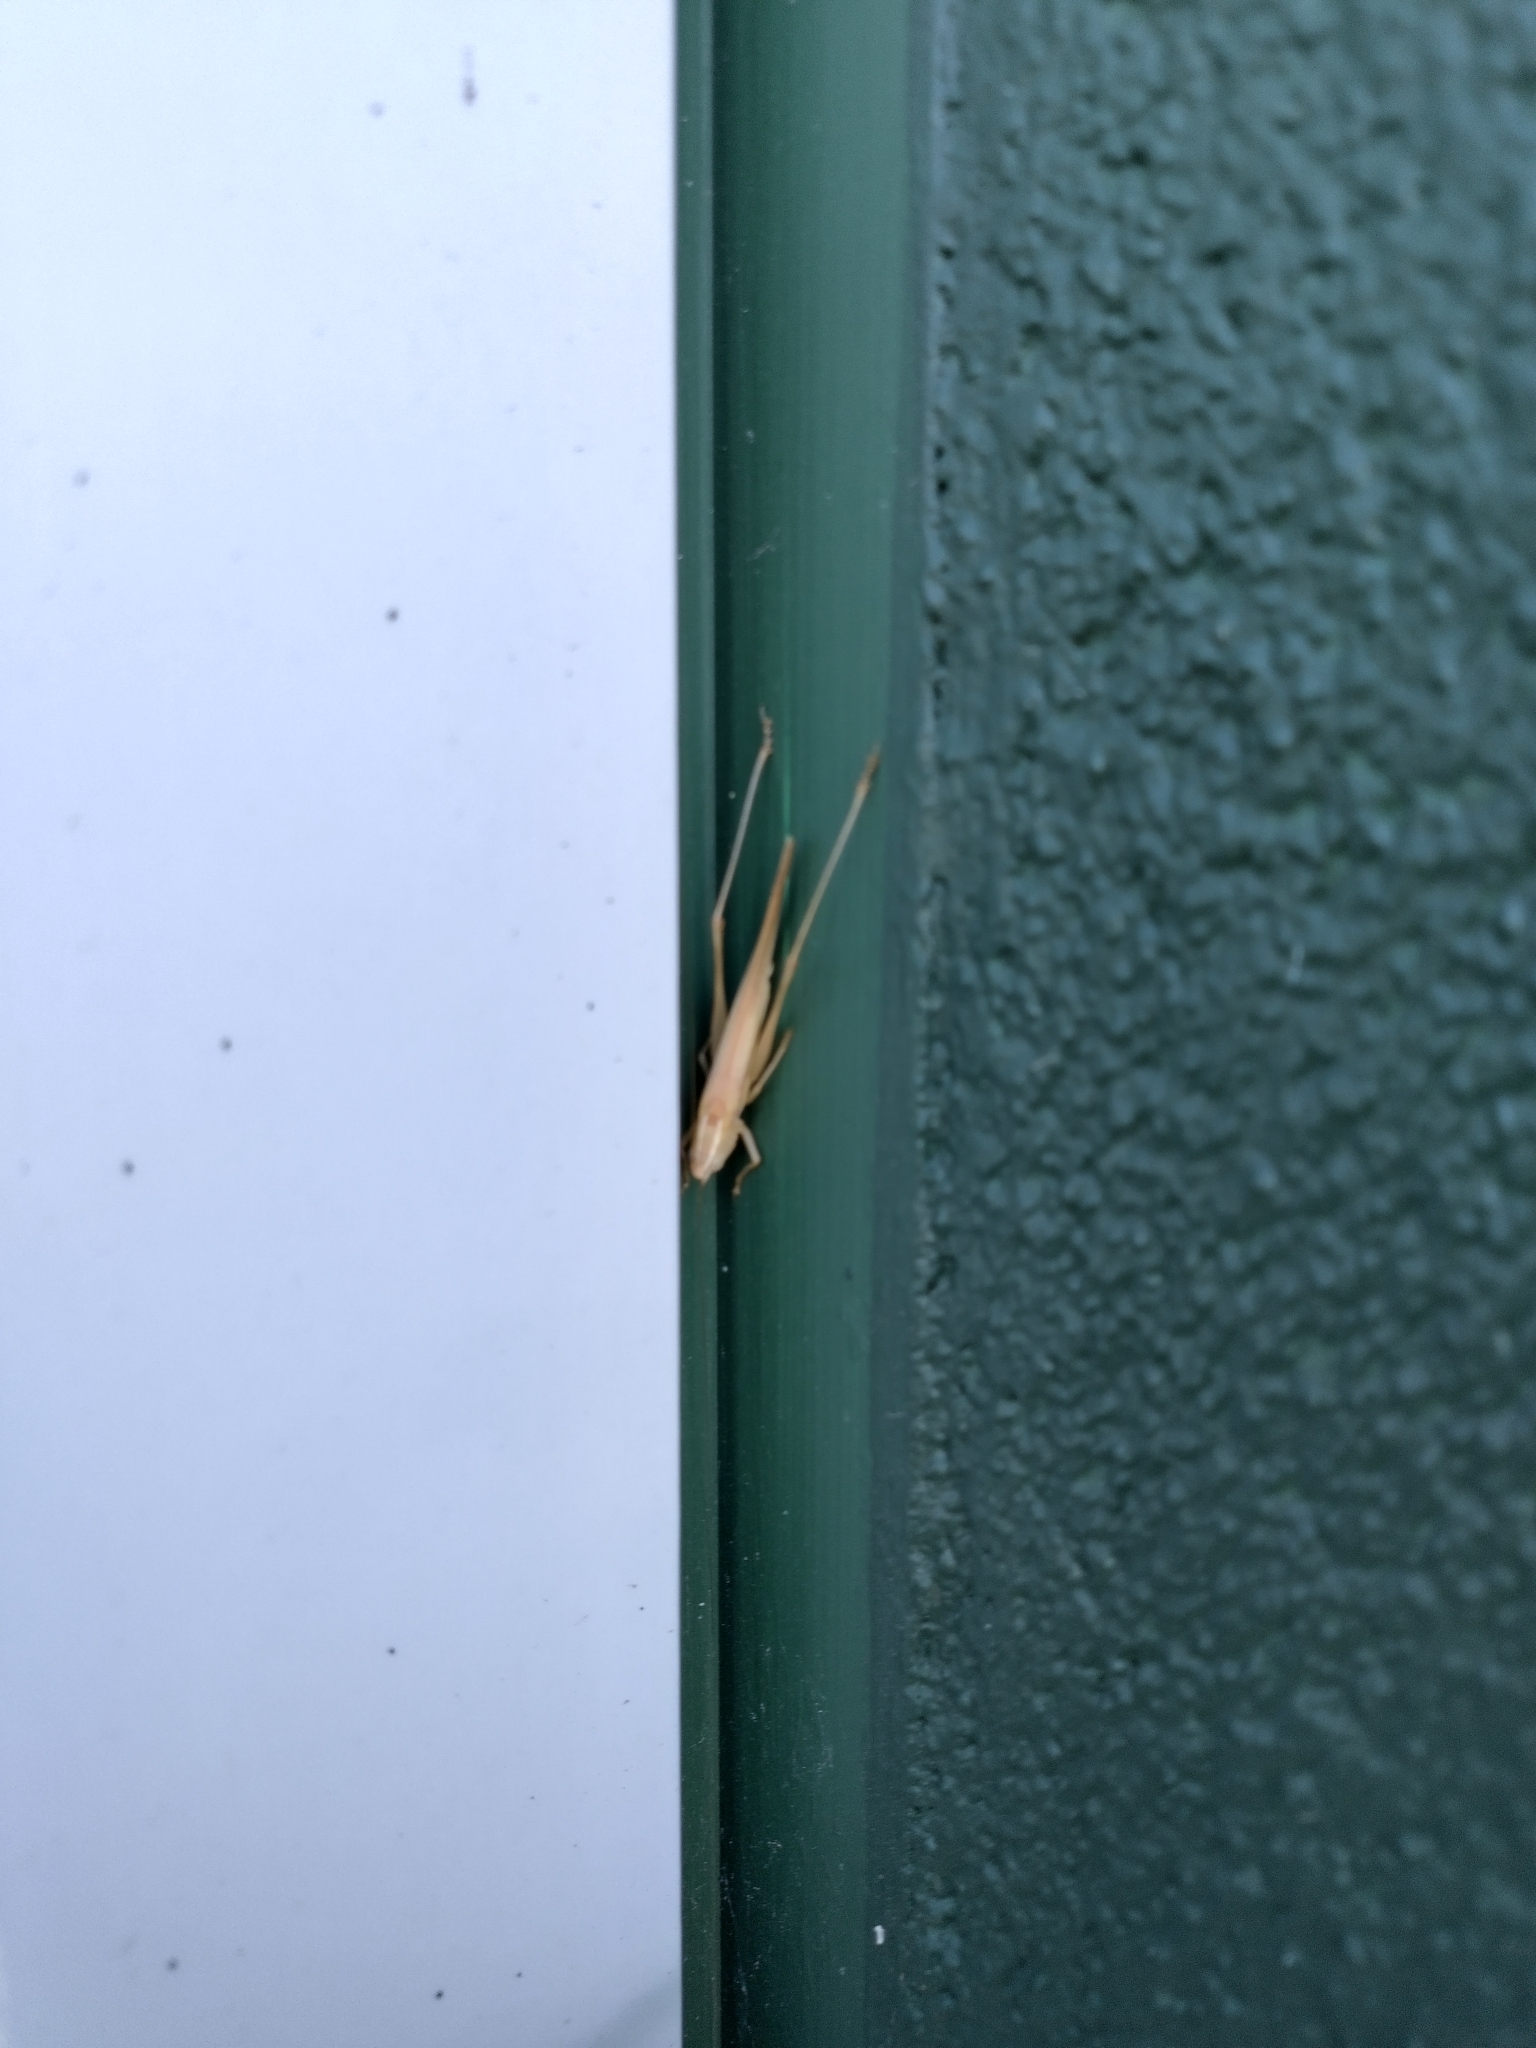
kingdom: Animalia
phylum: Arthropoda
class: Insecta
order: Orthoptera
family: Tettigoniidae
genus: Conocephalus
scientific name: Conocephalus upoluensis
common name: Upolu meadow katydid
